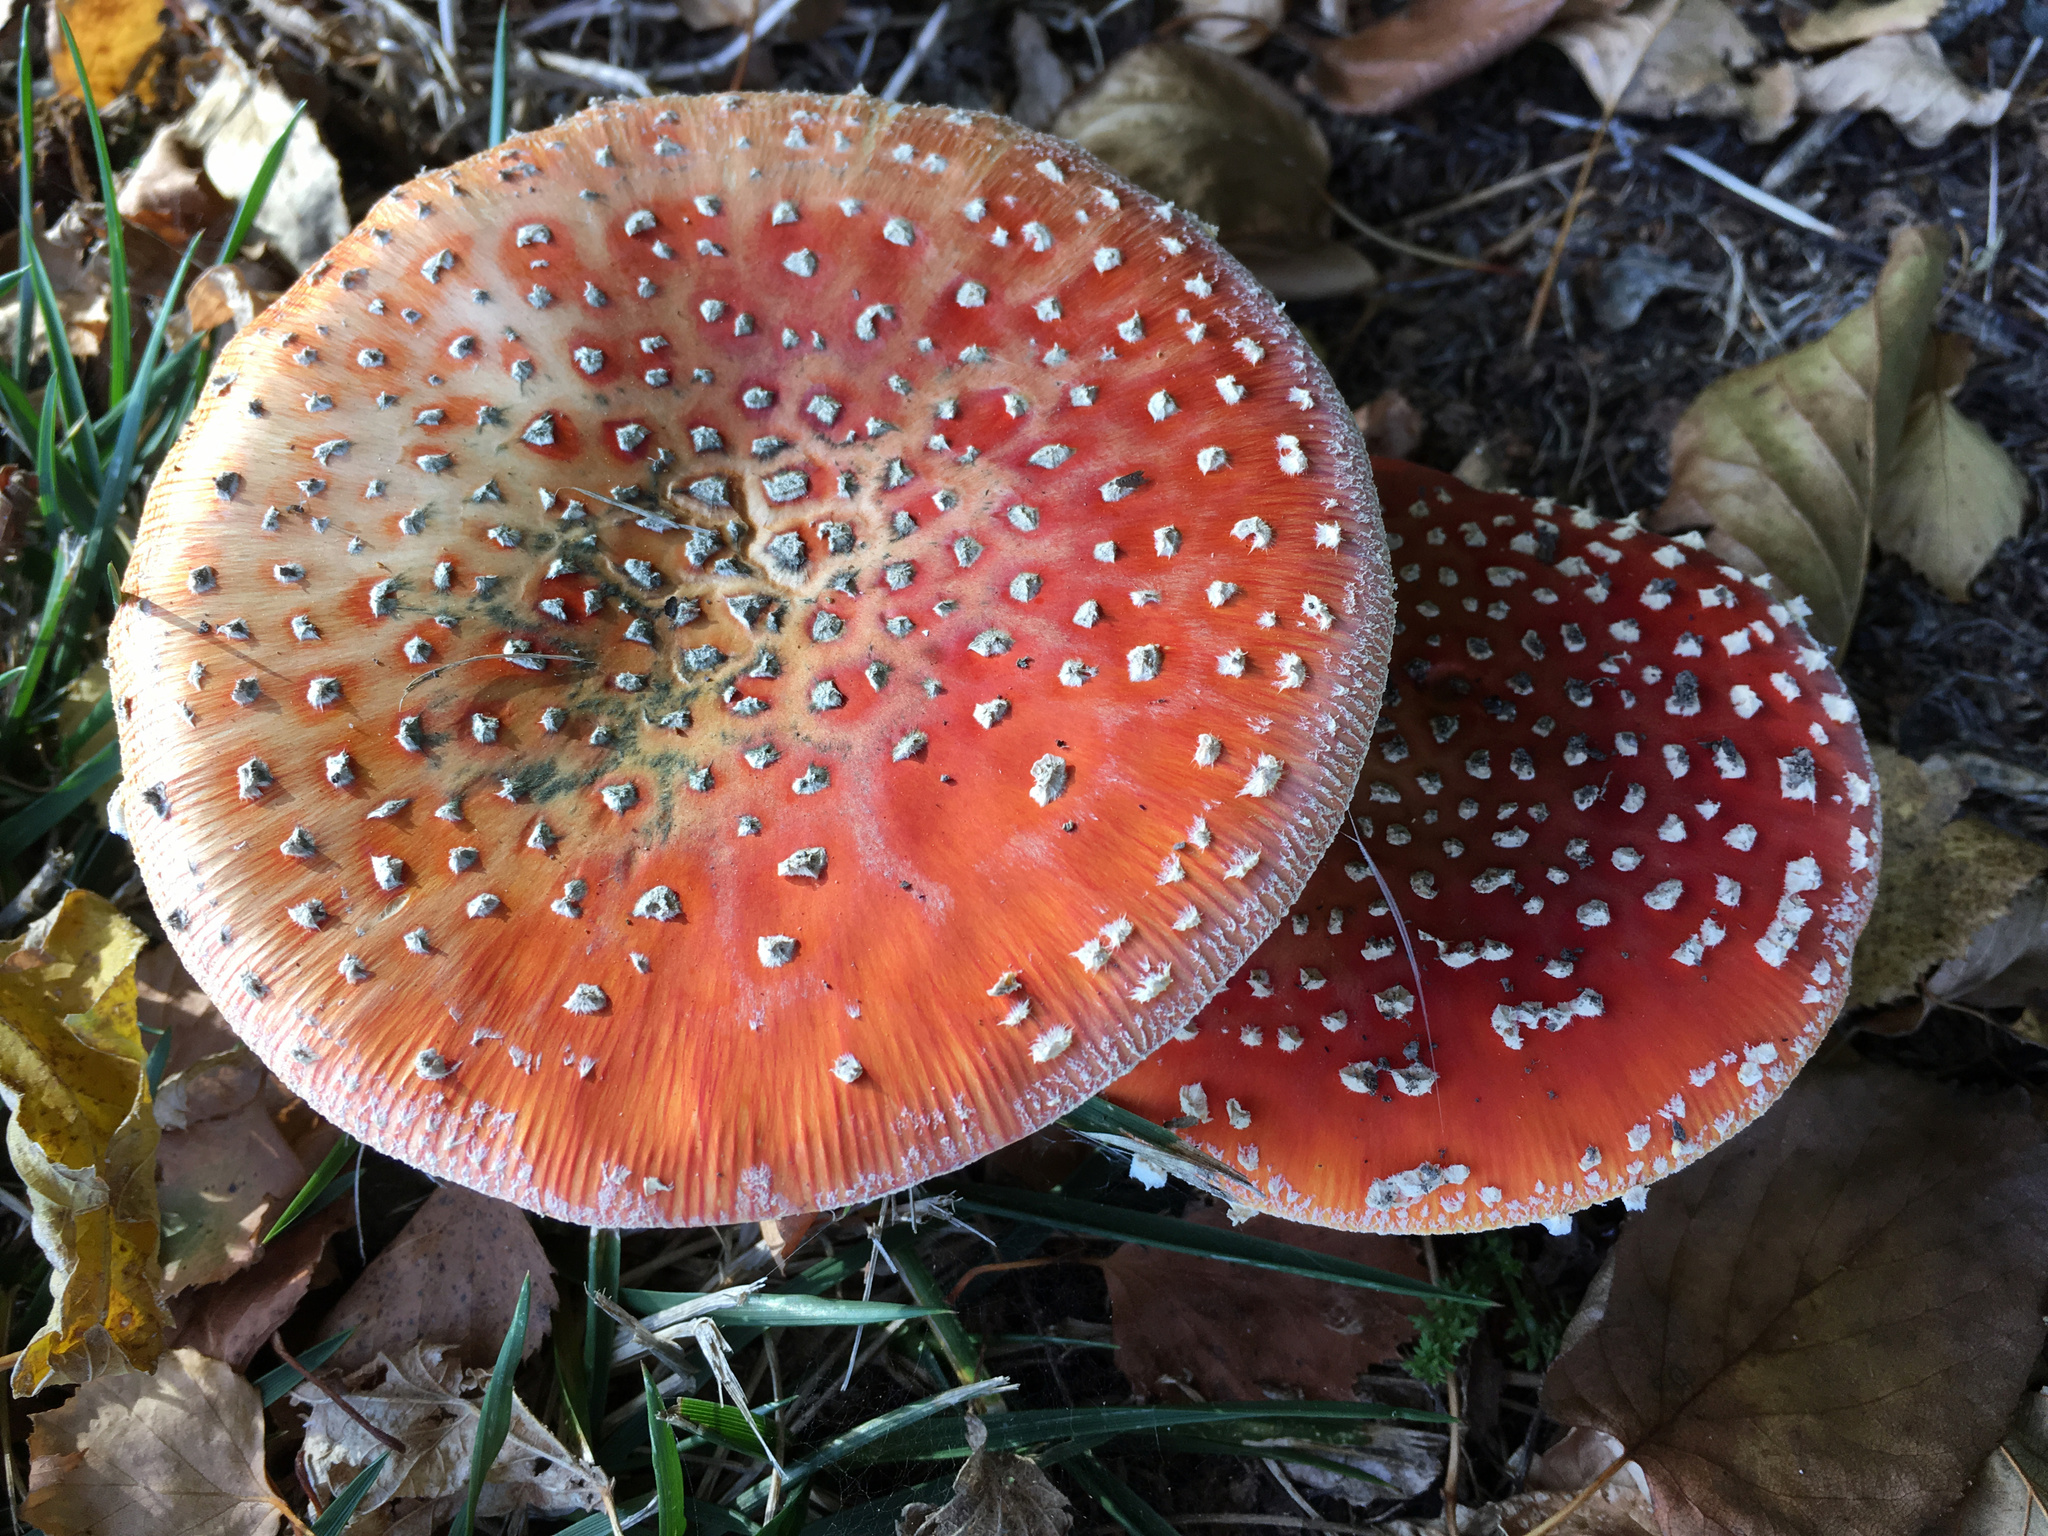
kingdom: Fungi
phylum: Basidiomycota
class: Agaricomycetes
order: Agaricales
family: Amanitaceae
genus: Amanita
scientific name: Amanita muscaria
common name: Fly agaric
